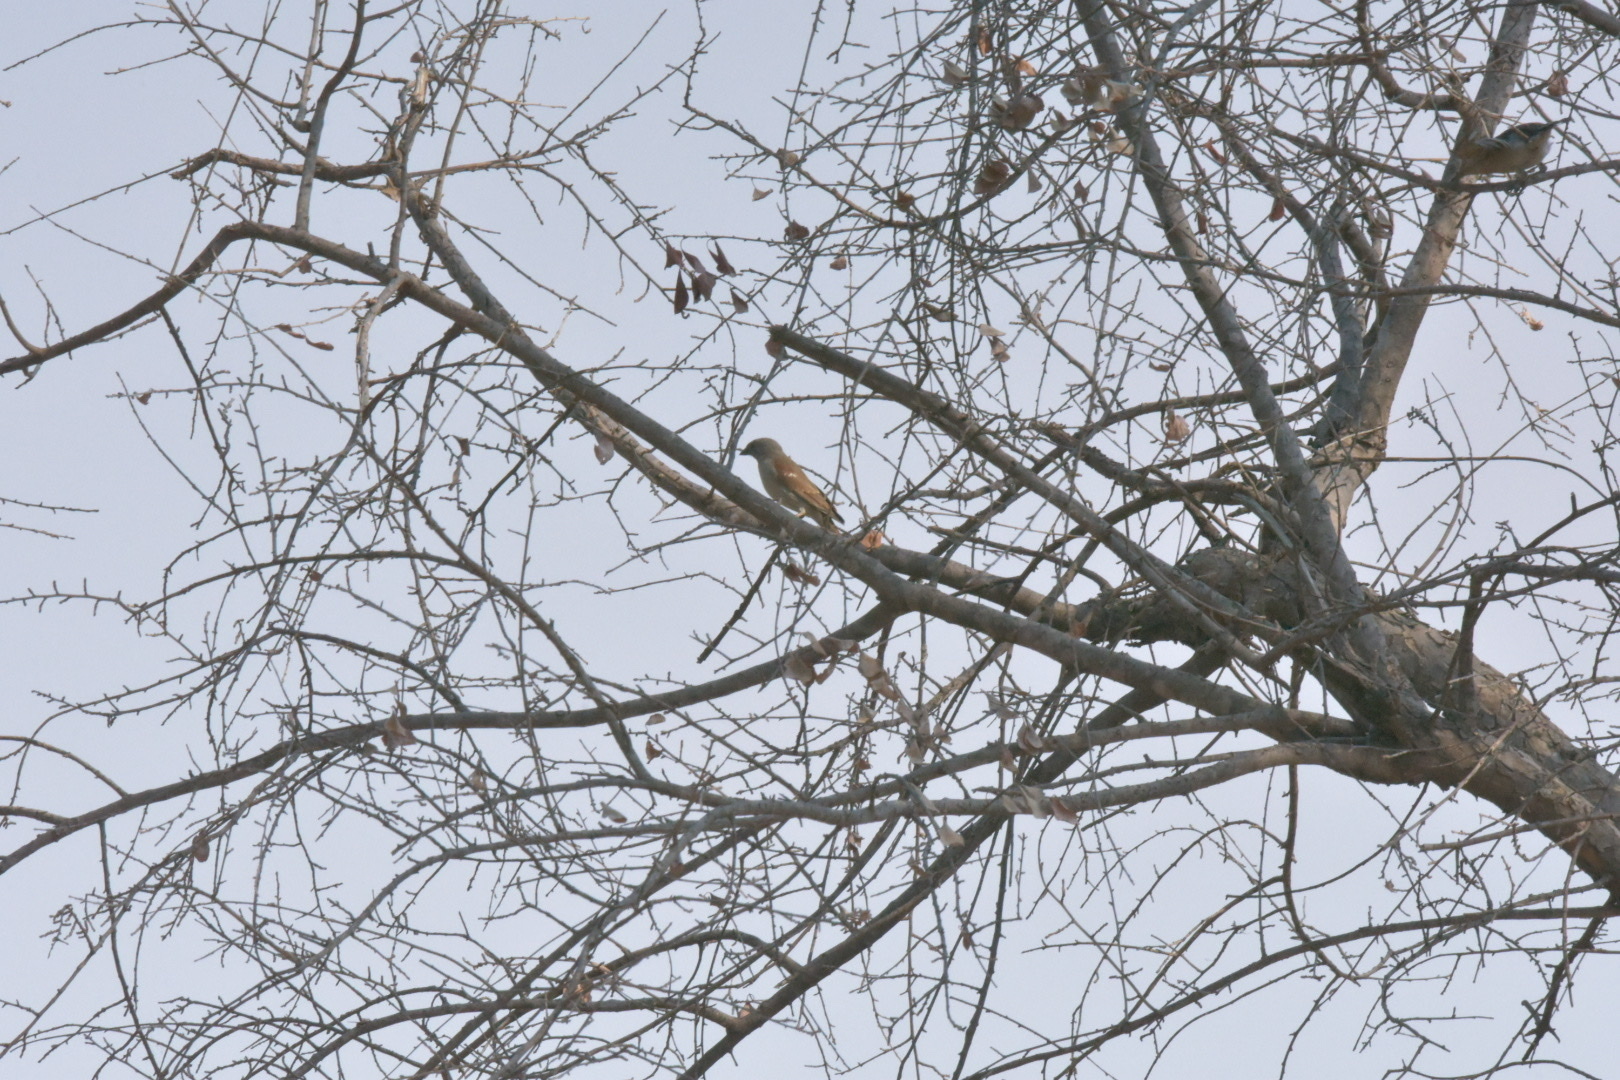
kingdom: Animalia
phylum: Chordata
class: Aves
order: Passeriformes
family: Passeridae
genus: Passer
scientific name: Passer griseus
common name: Northern grey-headed sparrow
